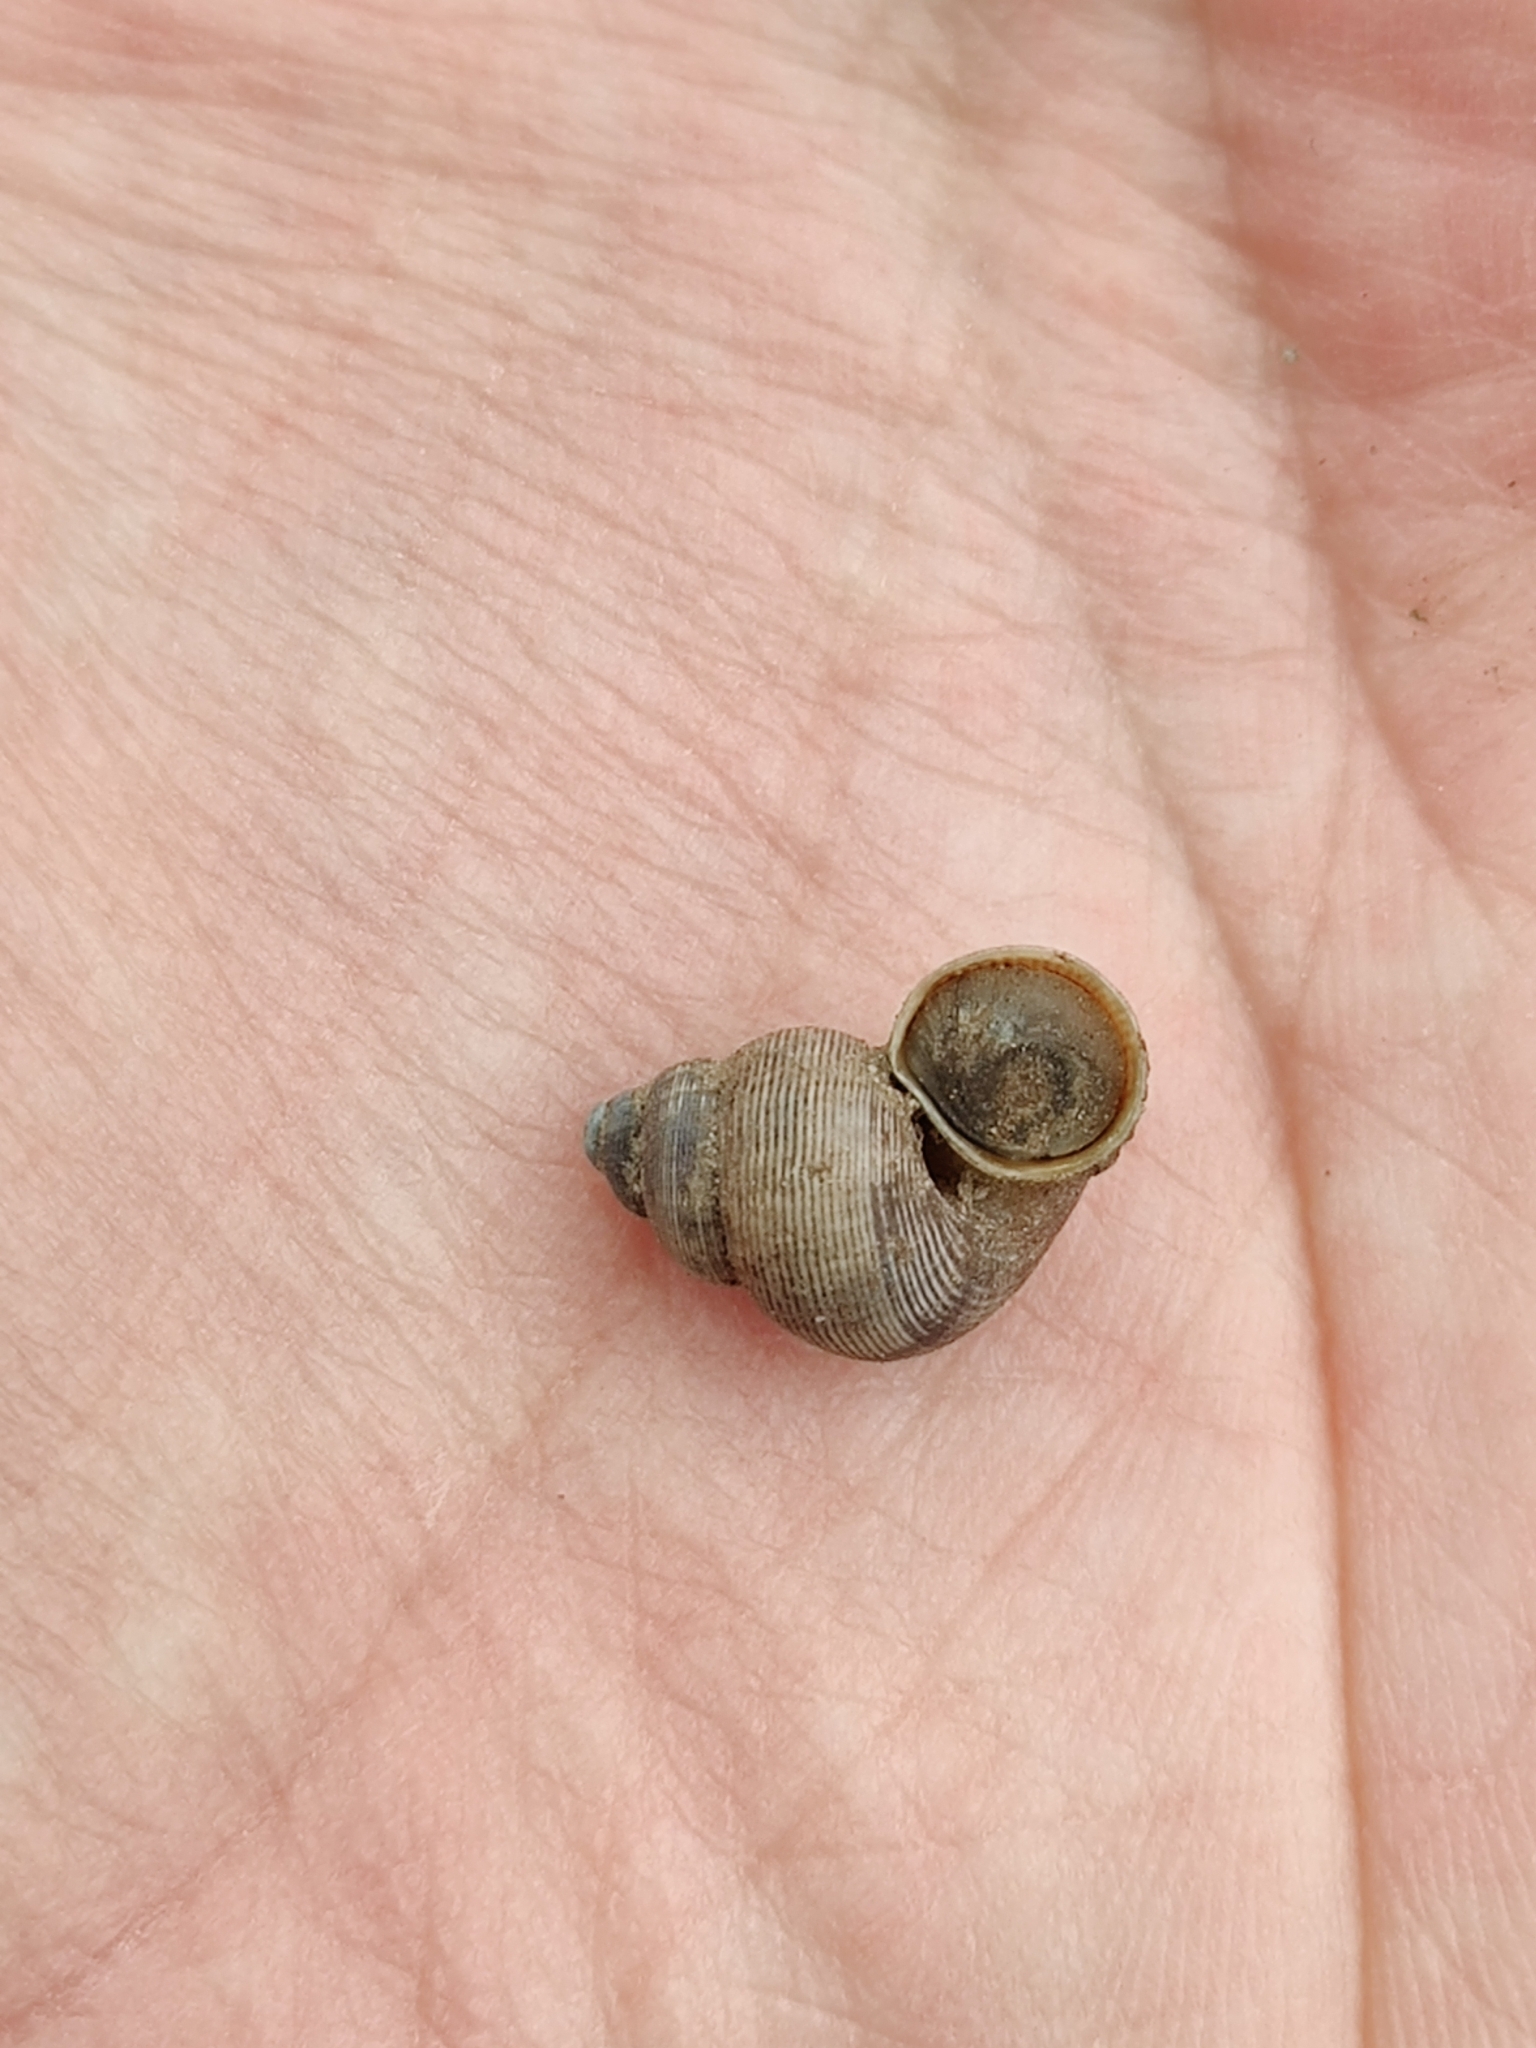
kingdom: Animalia
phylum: Mollusca
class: Gastropoda
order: Littorinimorpha
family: Pomatiidae
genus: Pomatias
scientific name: Pomatias elegans
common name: Red-mouthed snail
